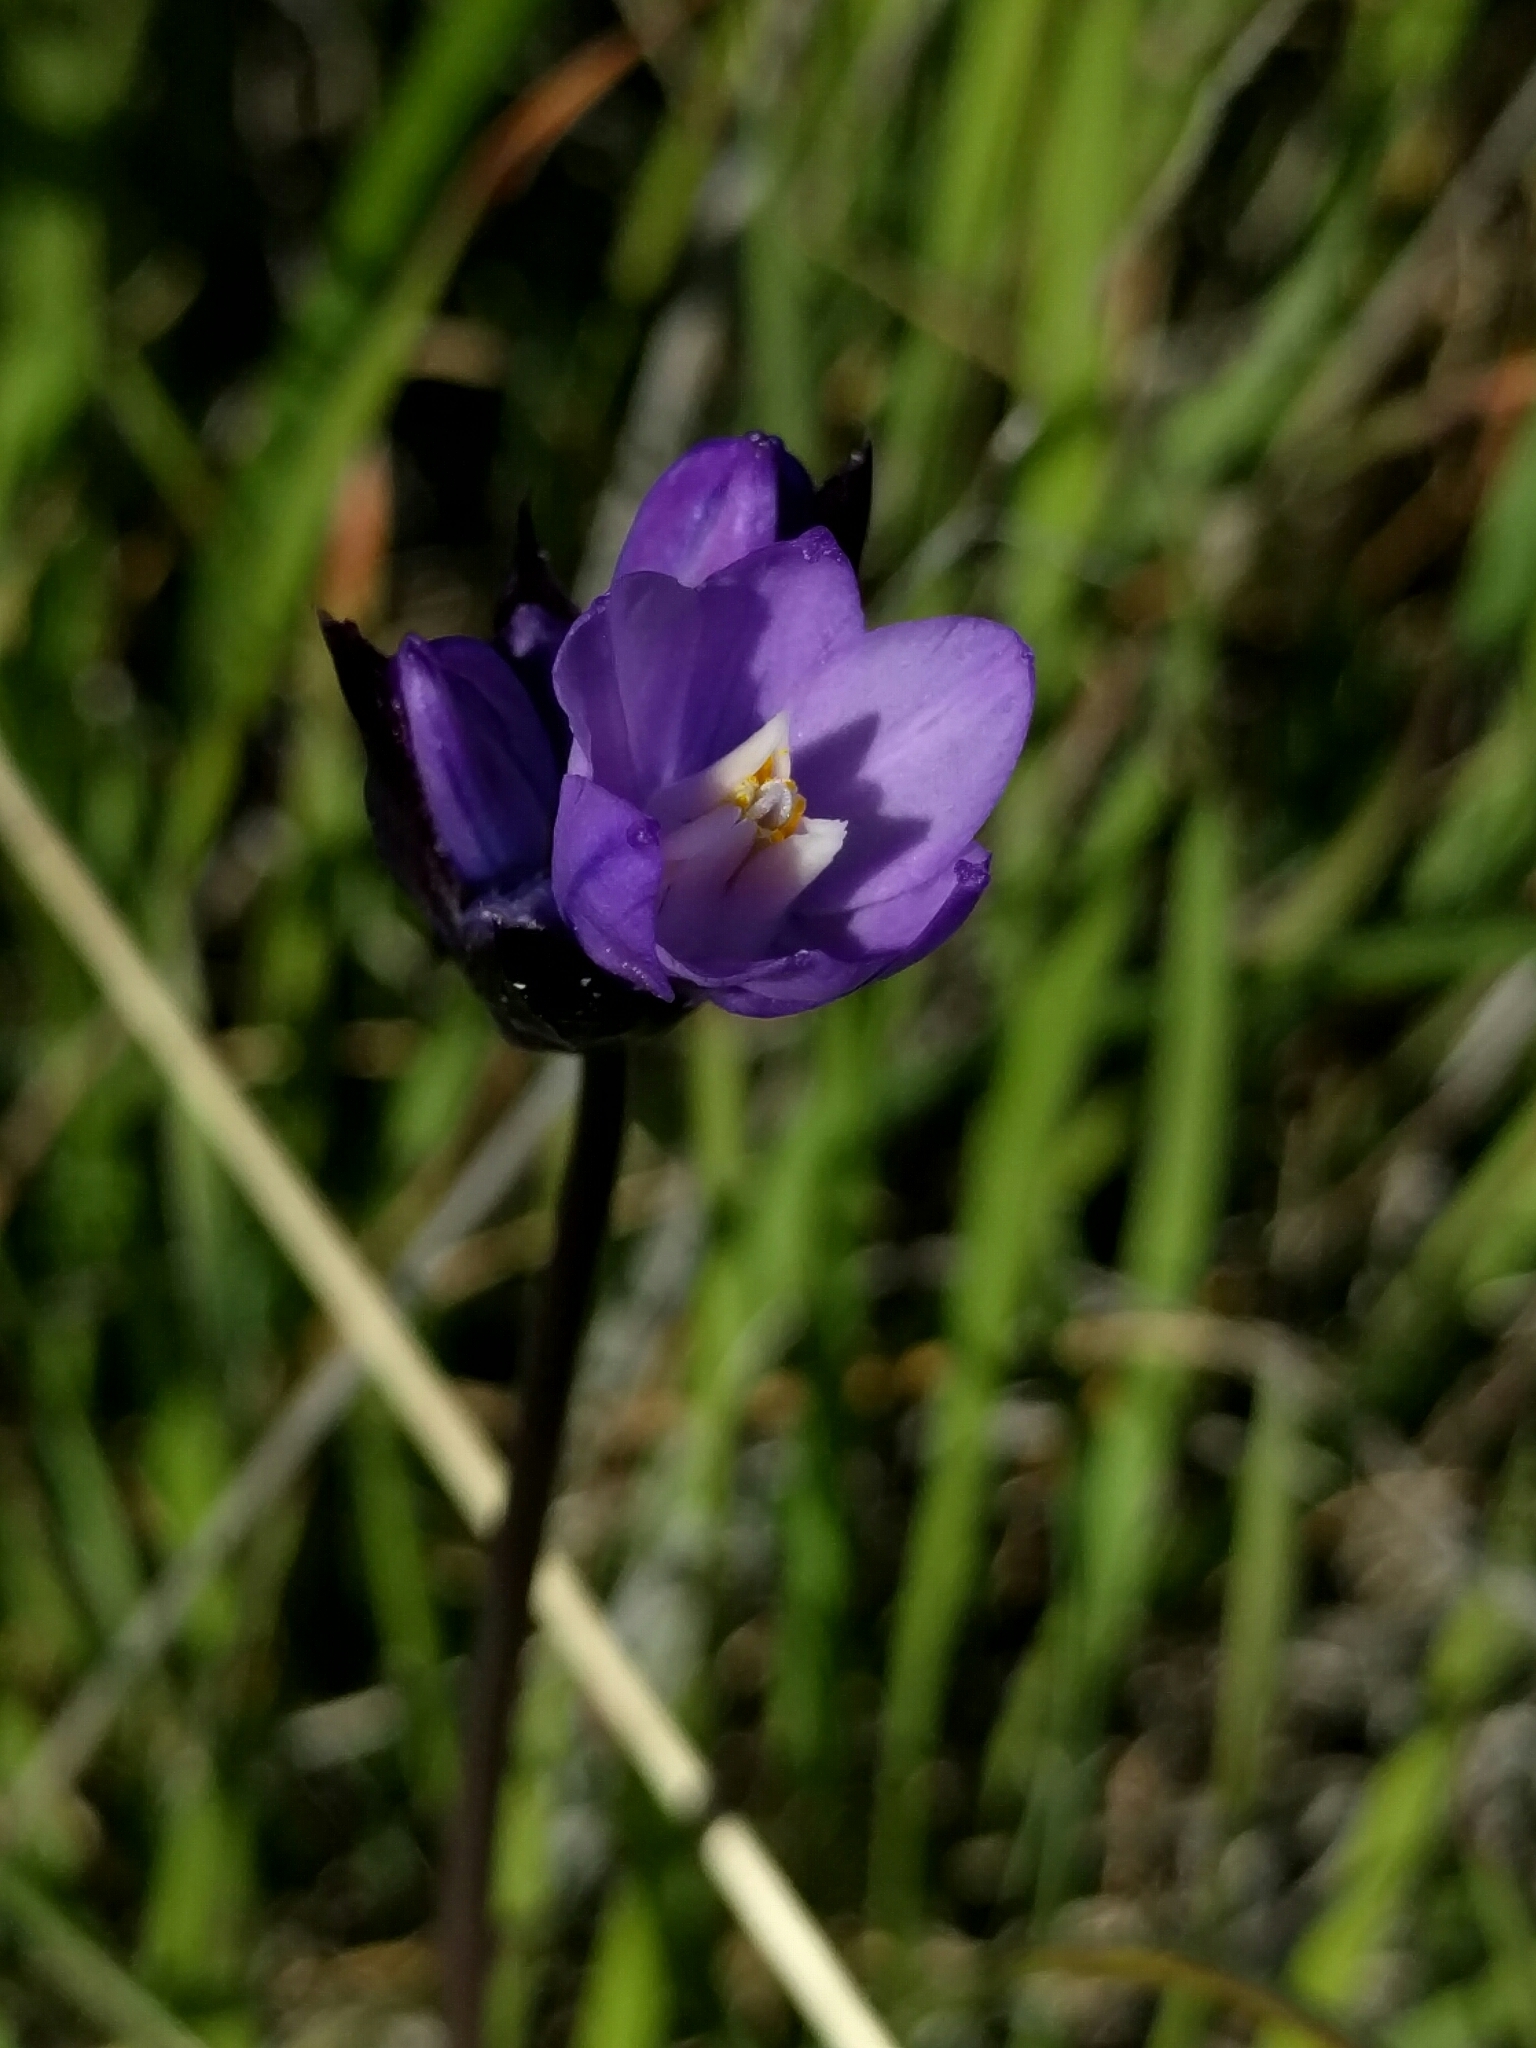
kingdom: Plantae
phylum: Tracheophyta
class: Liliopsida
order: Asparagales
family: Asparagaceae
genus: Dipterostemon
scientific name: Dipterostemon capitatus
